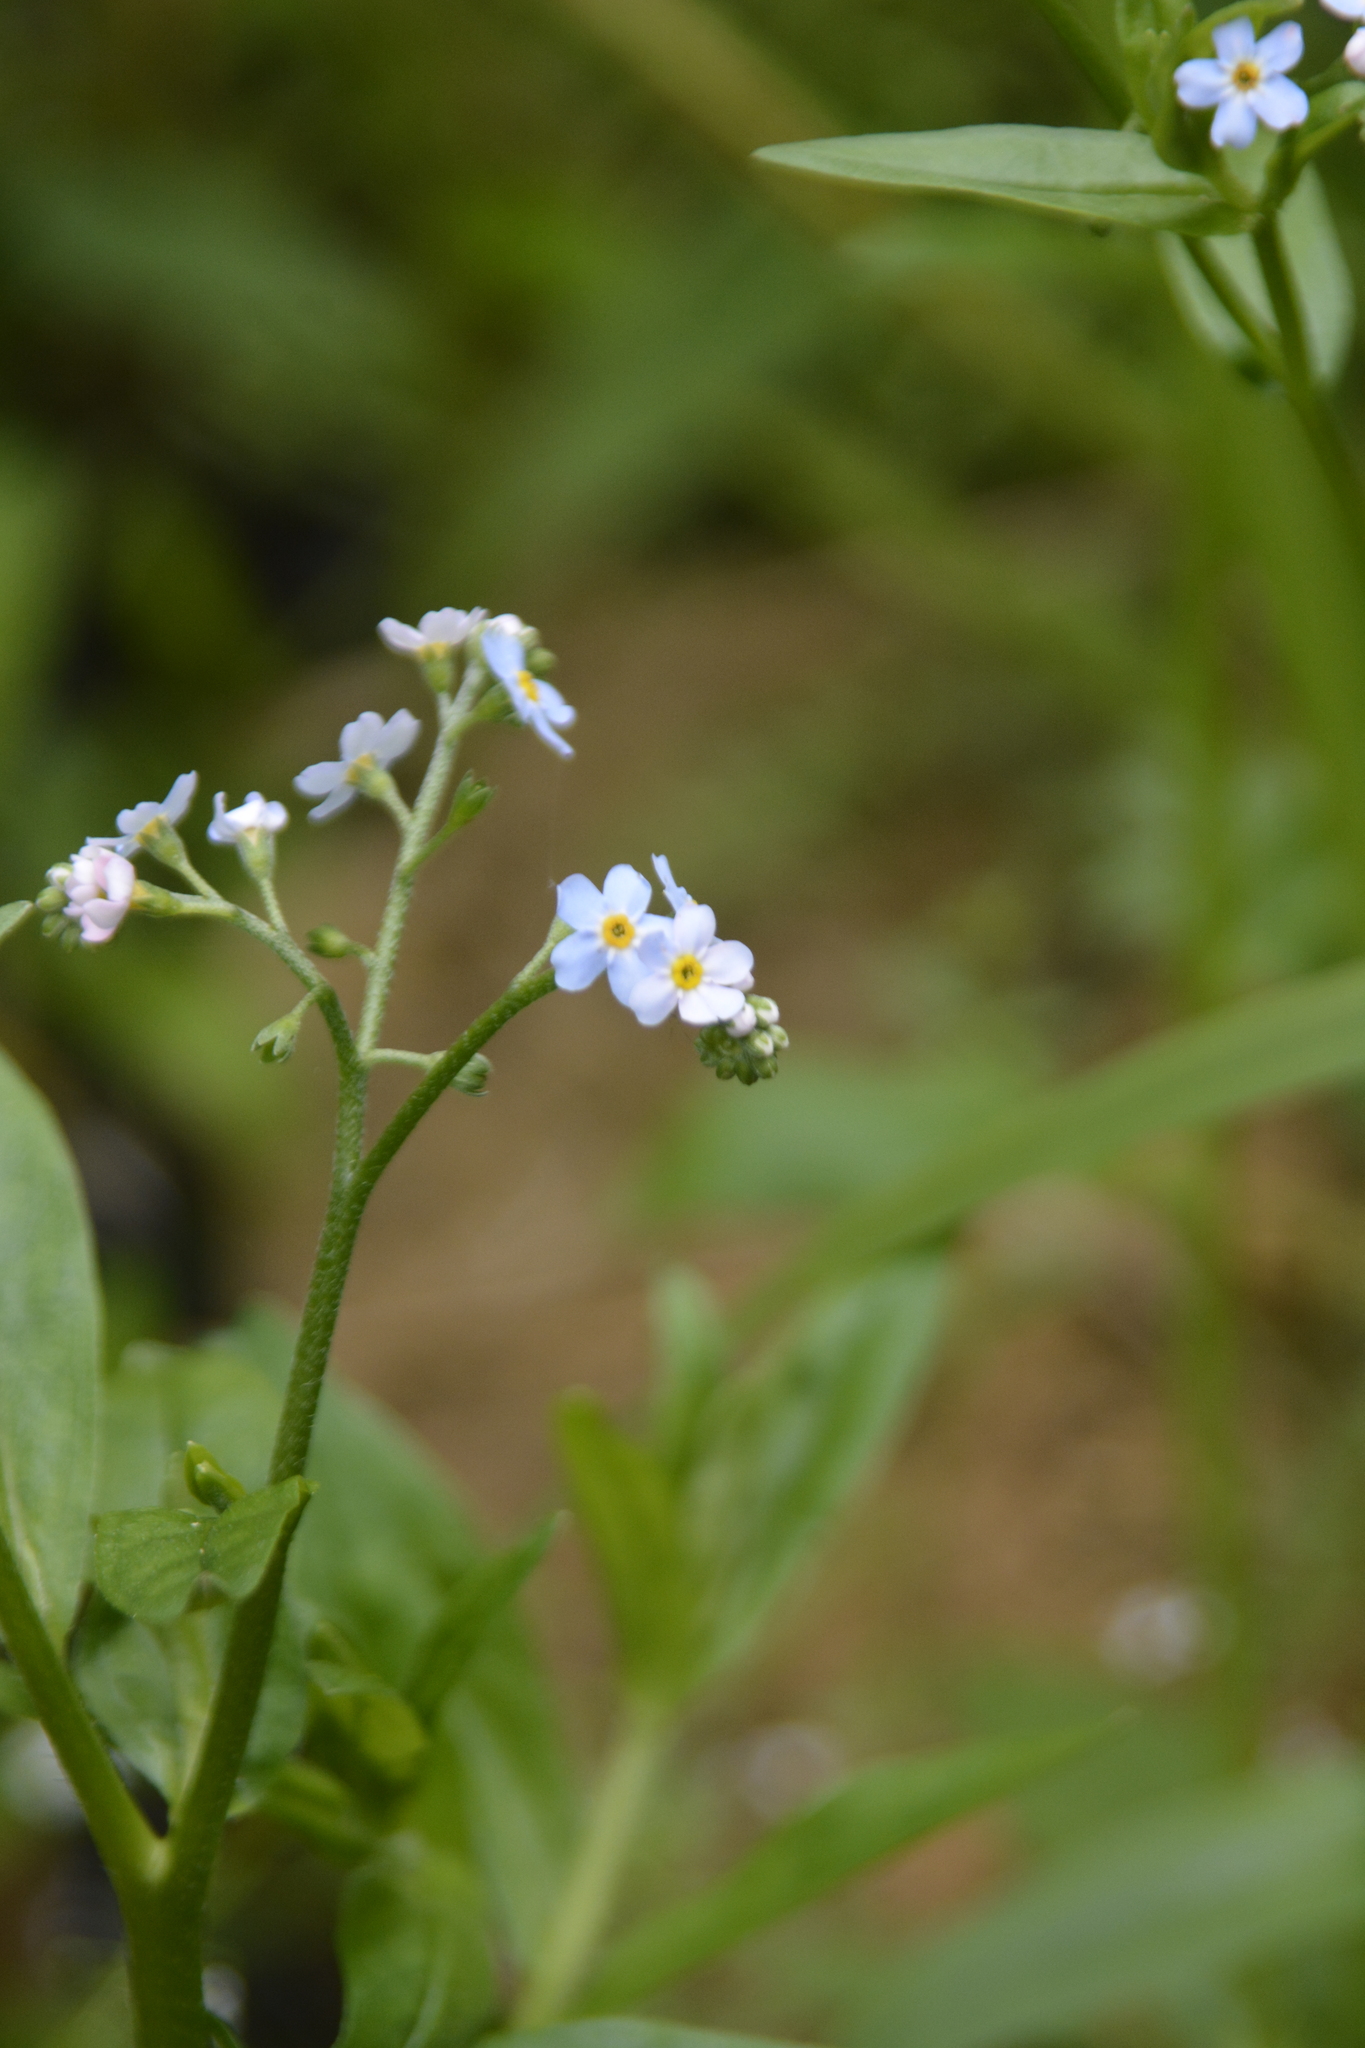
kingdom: Plantae
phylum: Tracheophyta
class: Magnoliopsida
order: Boraginales
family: Boraginaceae
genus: Myosotis
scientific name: Myosotis scorpioides
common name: Water forget-me-not
